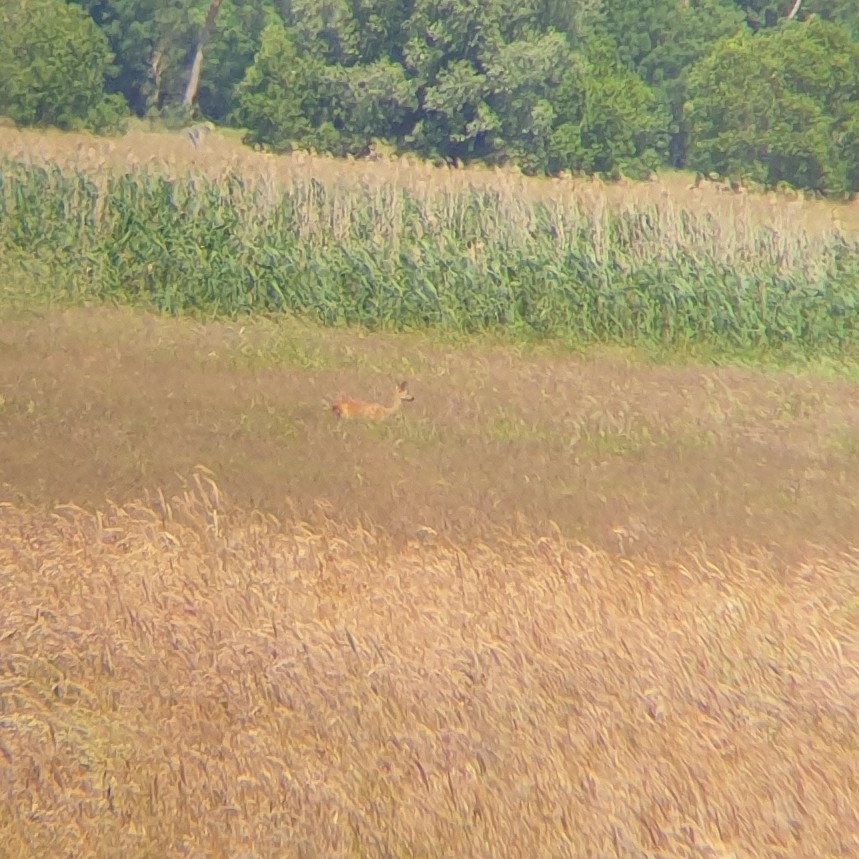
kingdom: Animalia
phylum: Chordata
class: Mammalia
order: Artiodactyla
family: Cervidae
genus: Capreolus
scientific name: Capreolus capreolus
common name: Western roe deer
